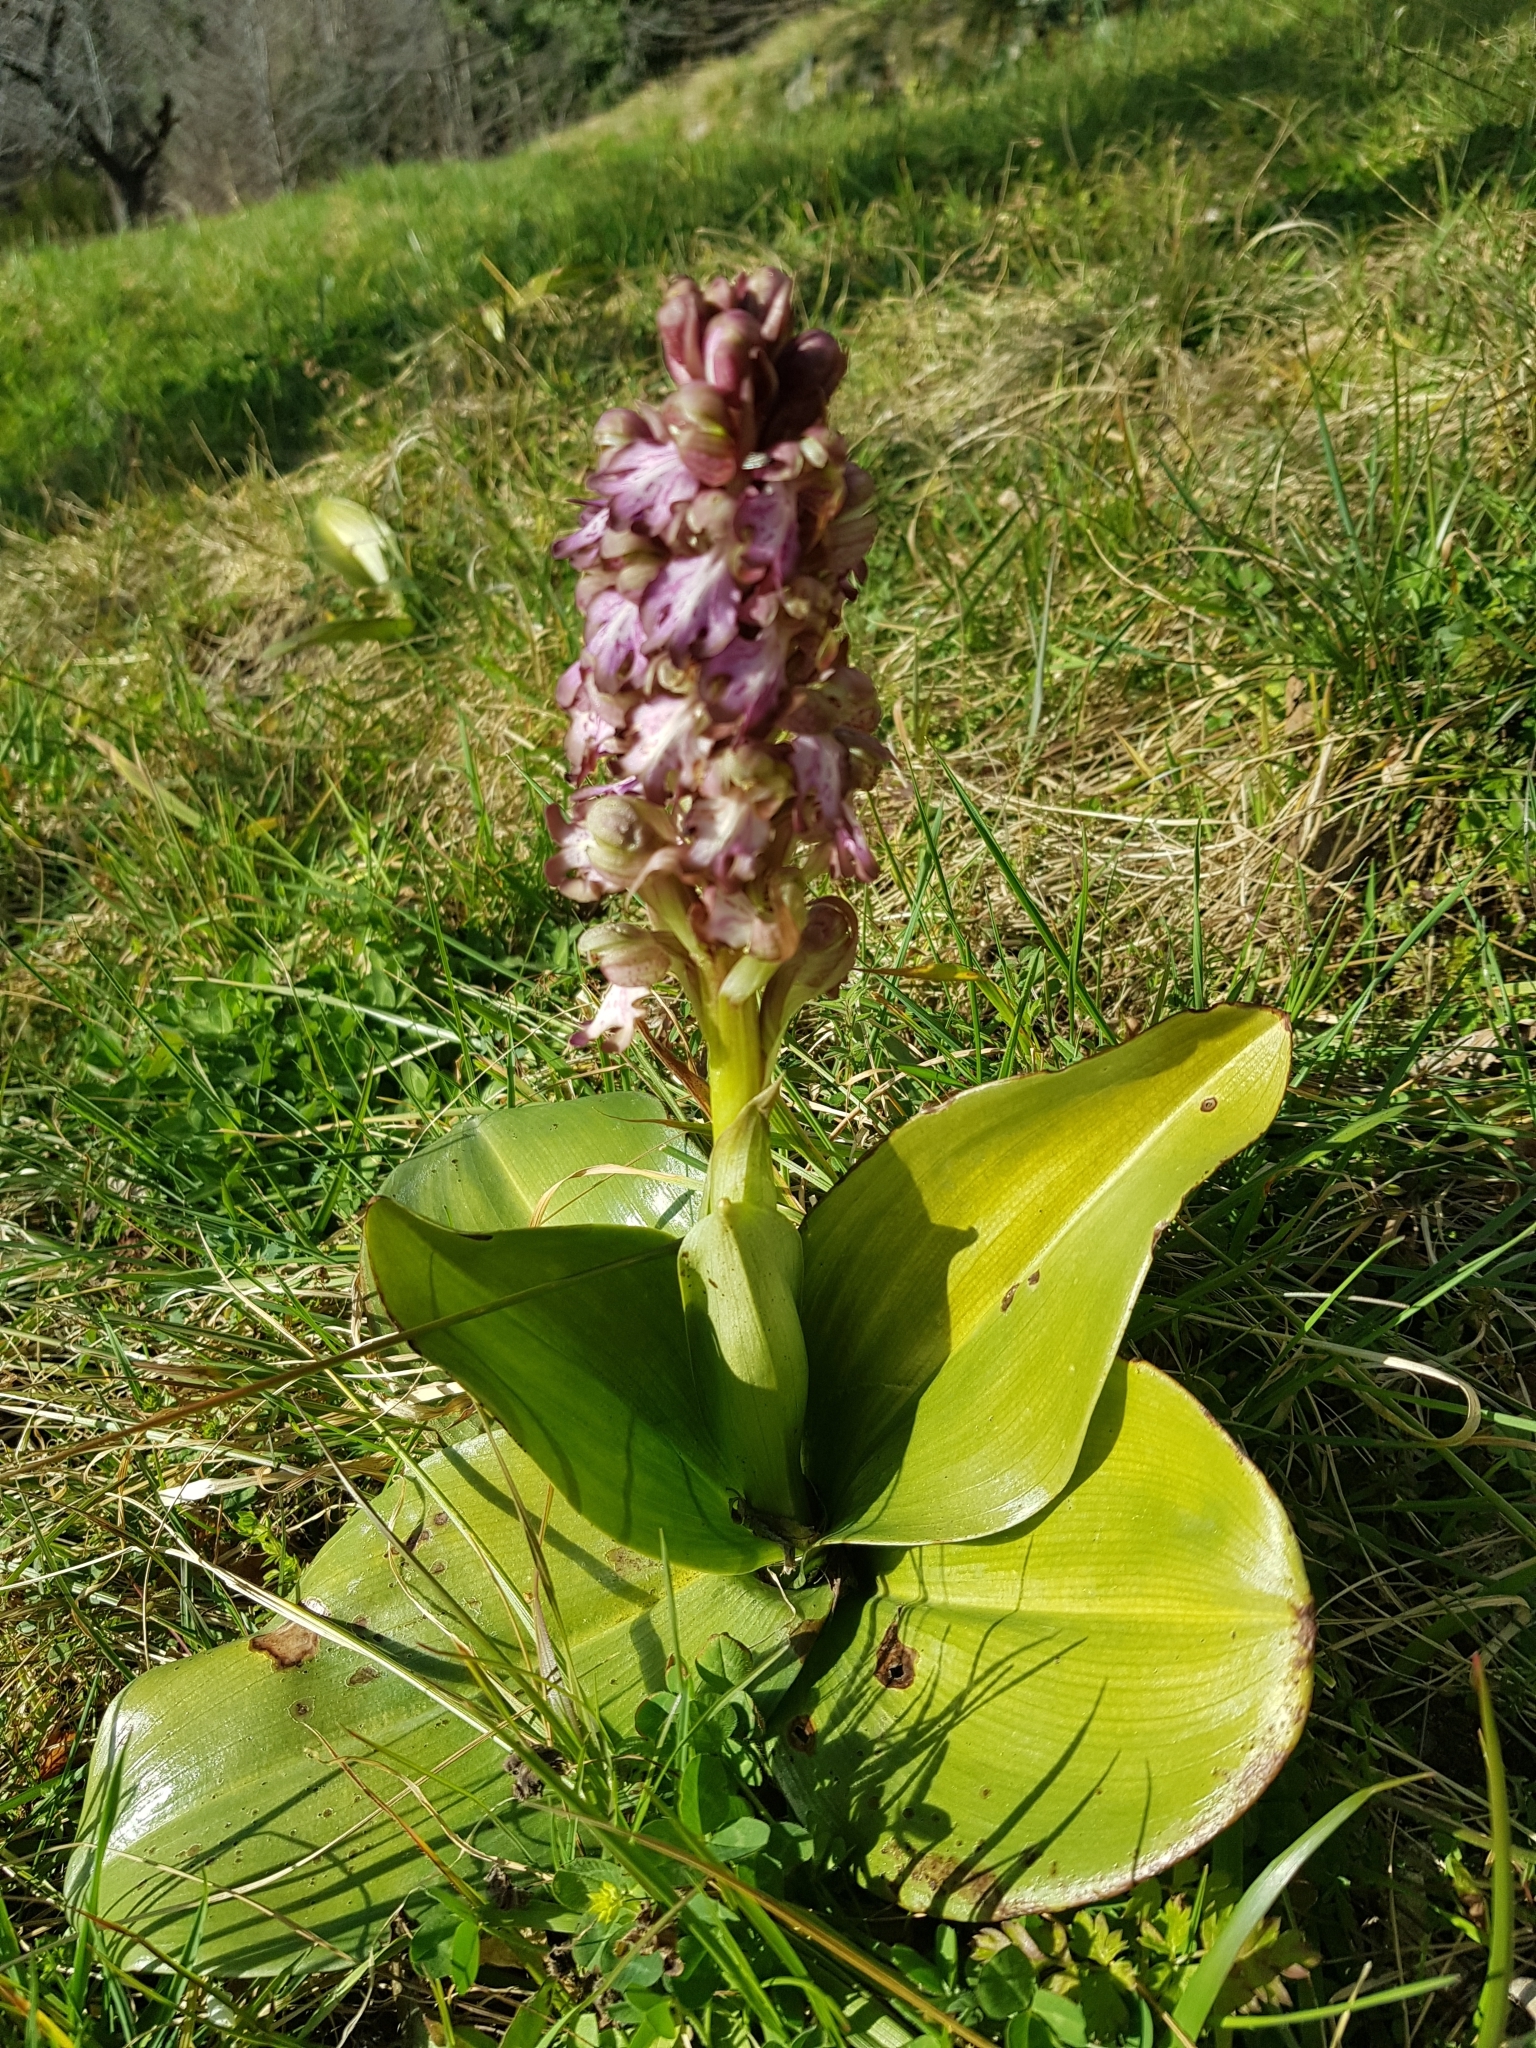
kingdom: Plantae
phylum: Tracheophyta
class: Liliopsida
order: Asparagales
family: Orchidaceae
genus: Himantoglossum
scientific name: Himantoglossum robertianum
